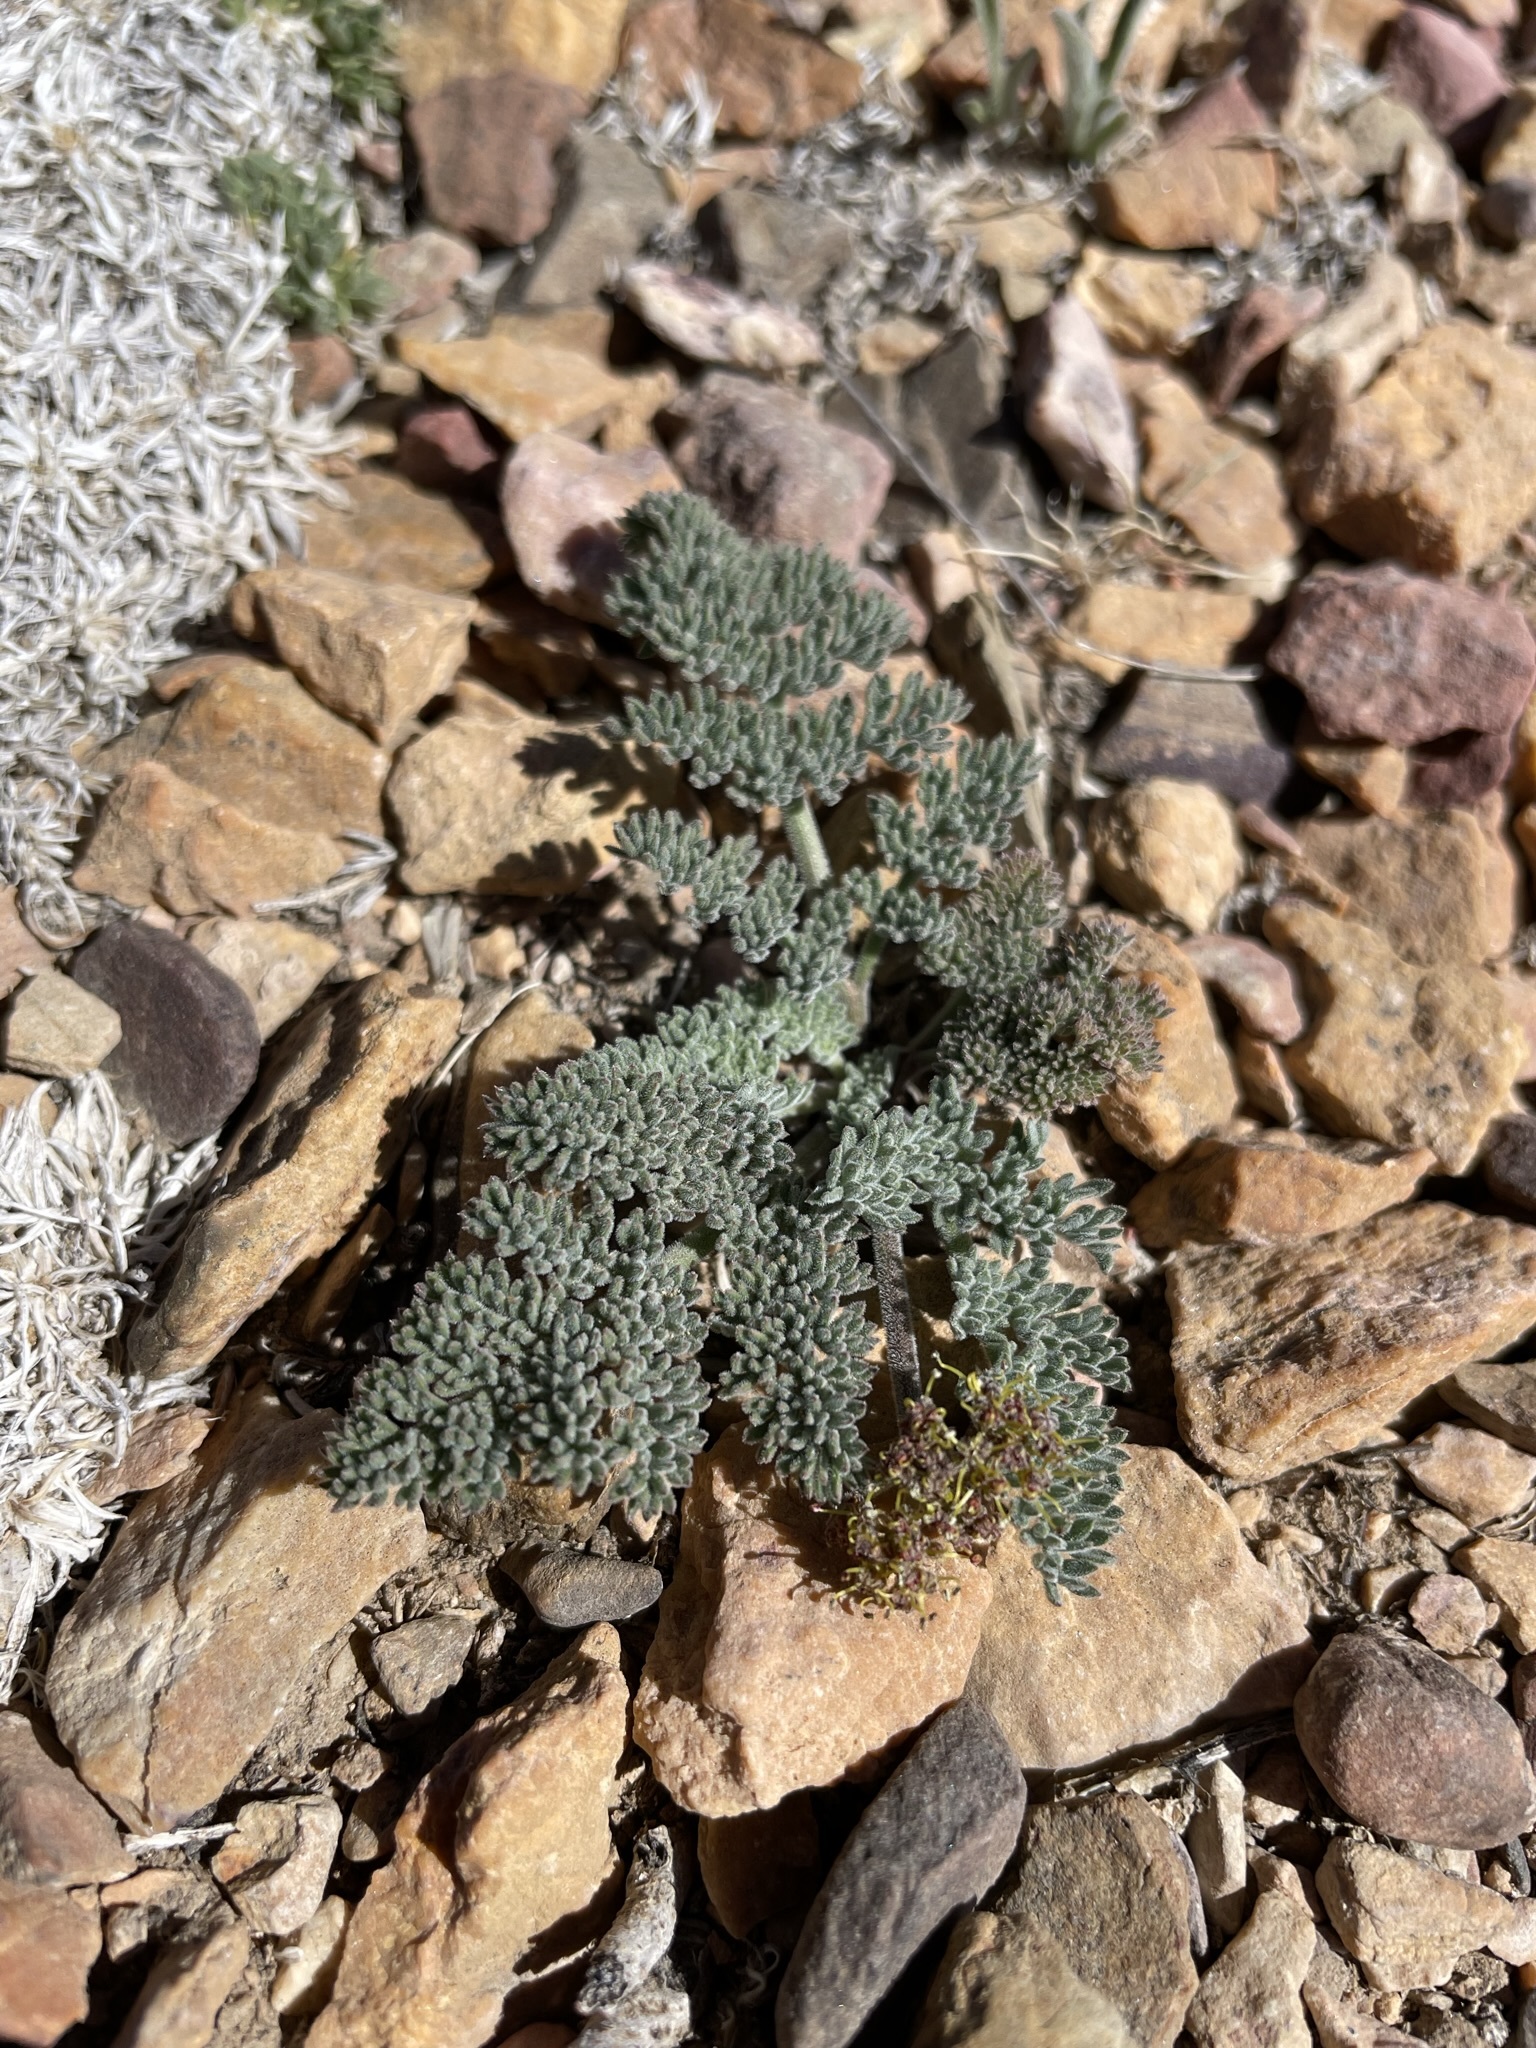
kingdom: Plantae
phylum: Tracheophyta
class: Magnoliopsida
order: Apiales
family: Apiaceae
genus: Lomatium
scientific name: Lomatium foeniculaceum
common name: Desert-parsley
